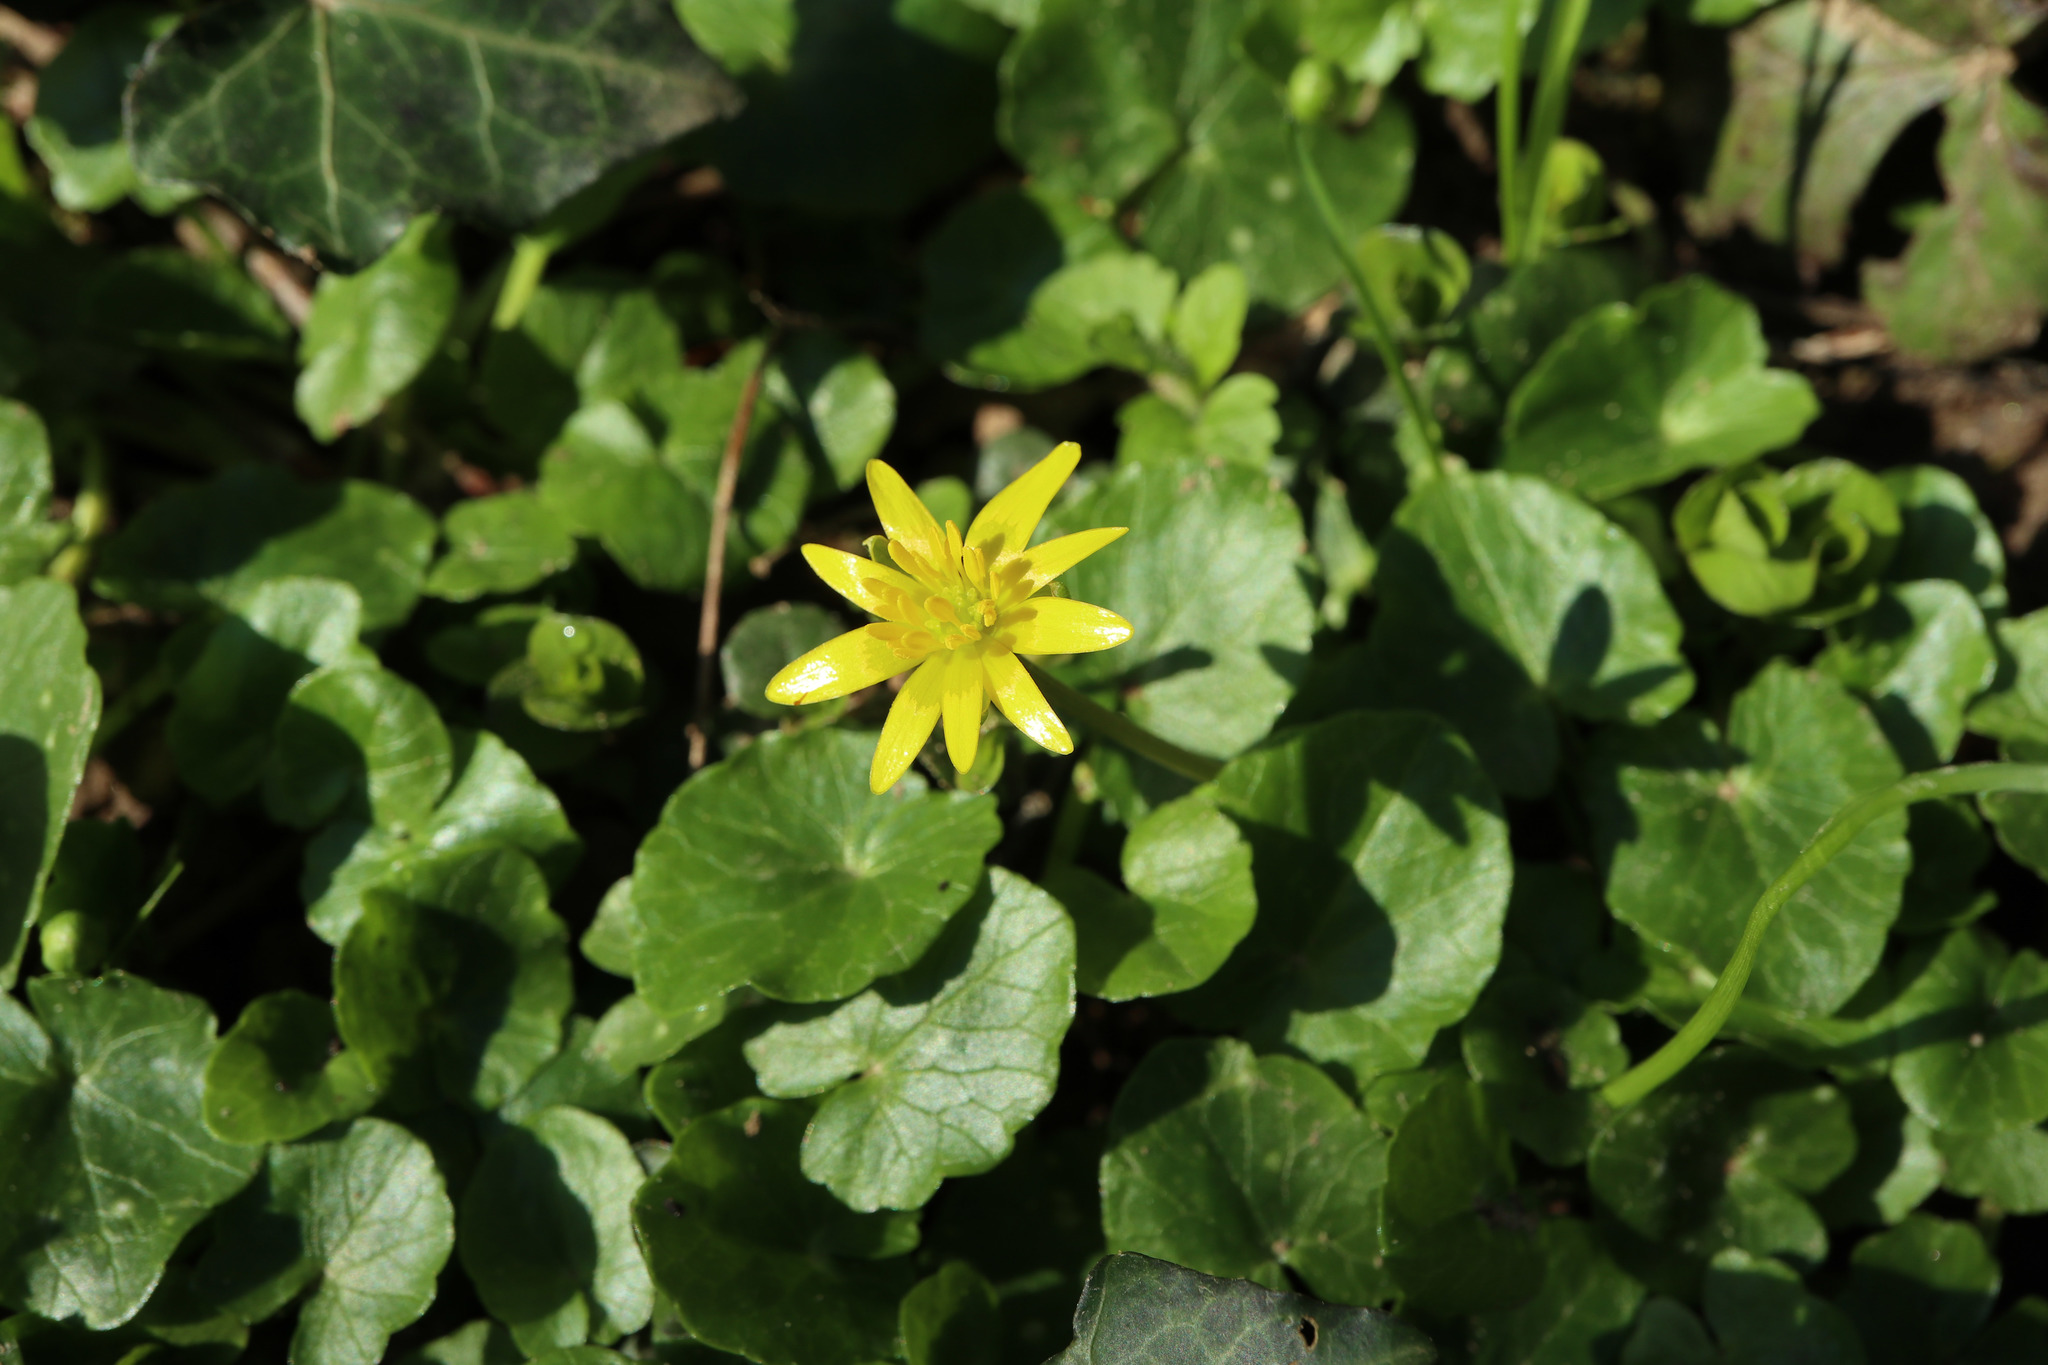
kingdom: Plantae
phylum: Tracheophyta
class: Magnoliopsida
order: Ranunculales
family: Ranunculaceae
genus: Ficaria
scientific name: Ficaria verna
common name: Lesser celandine
